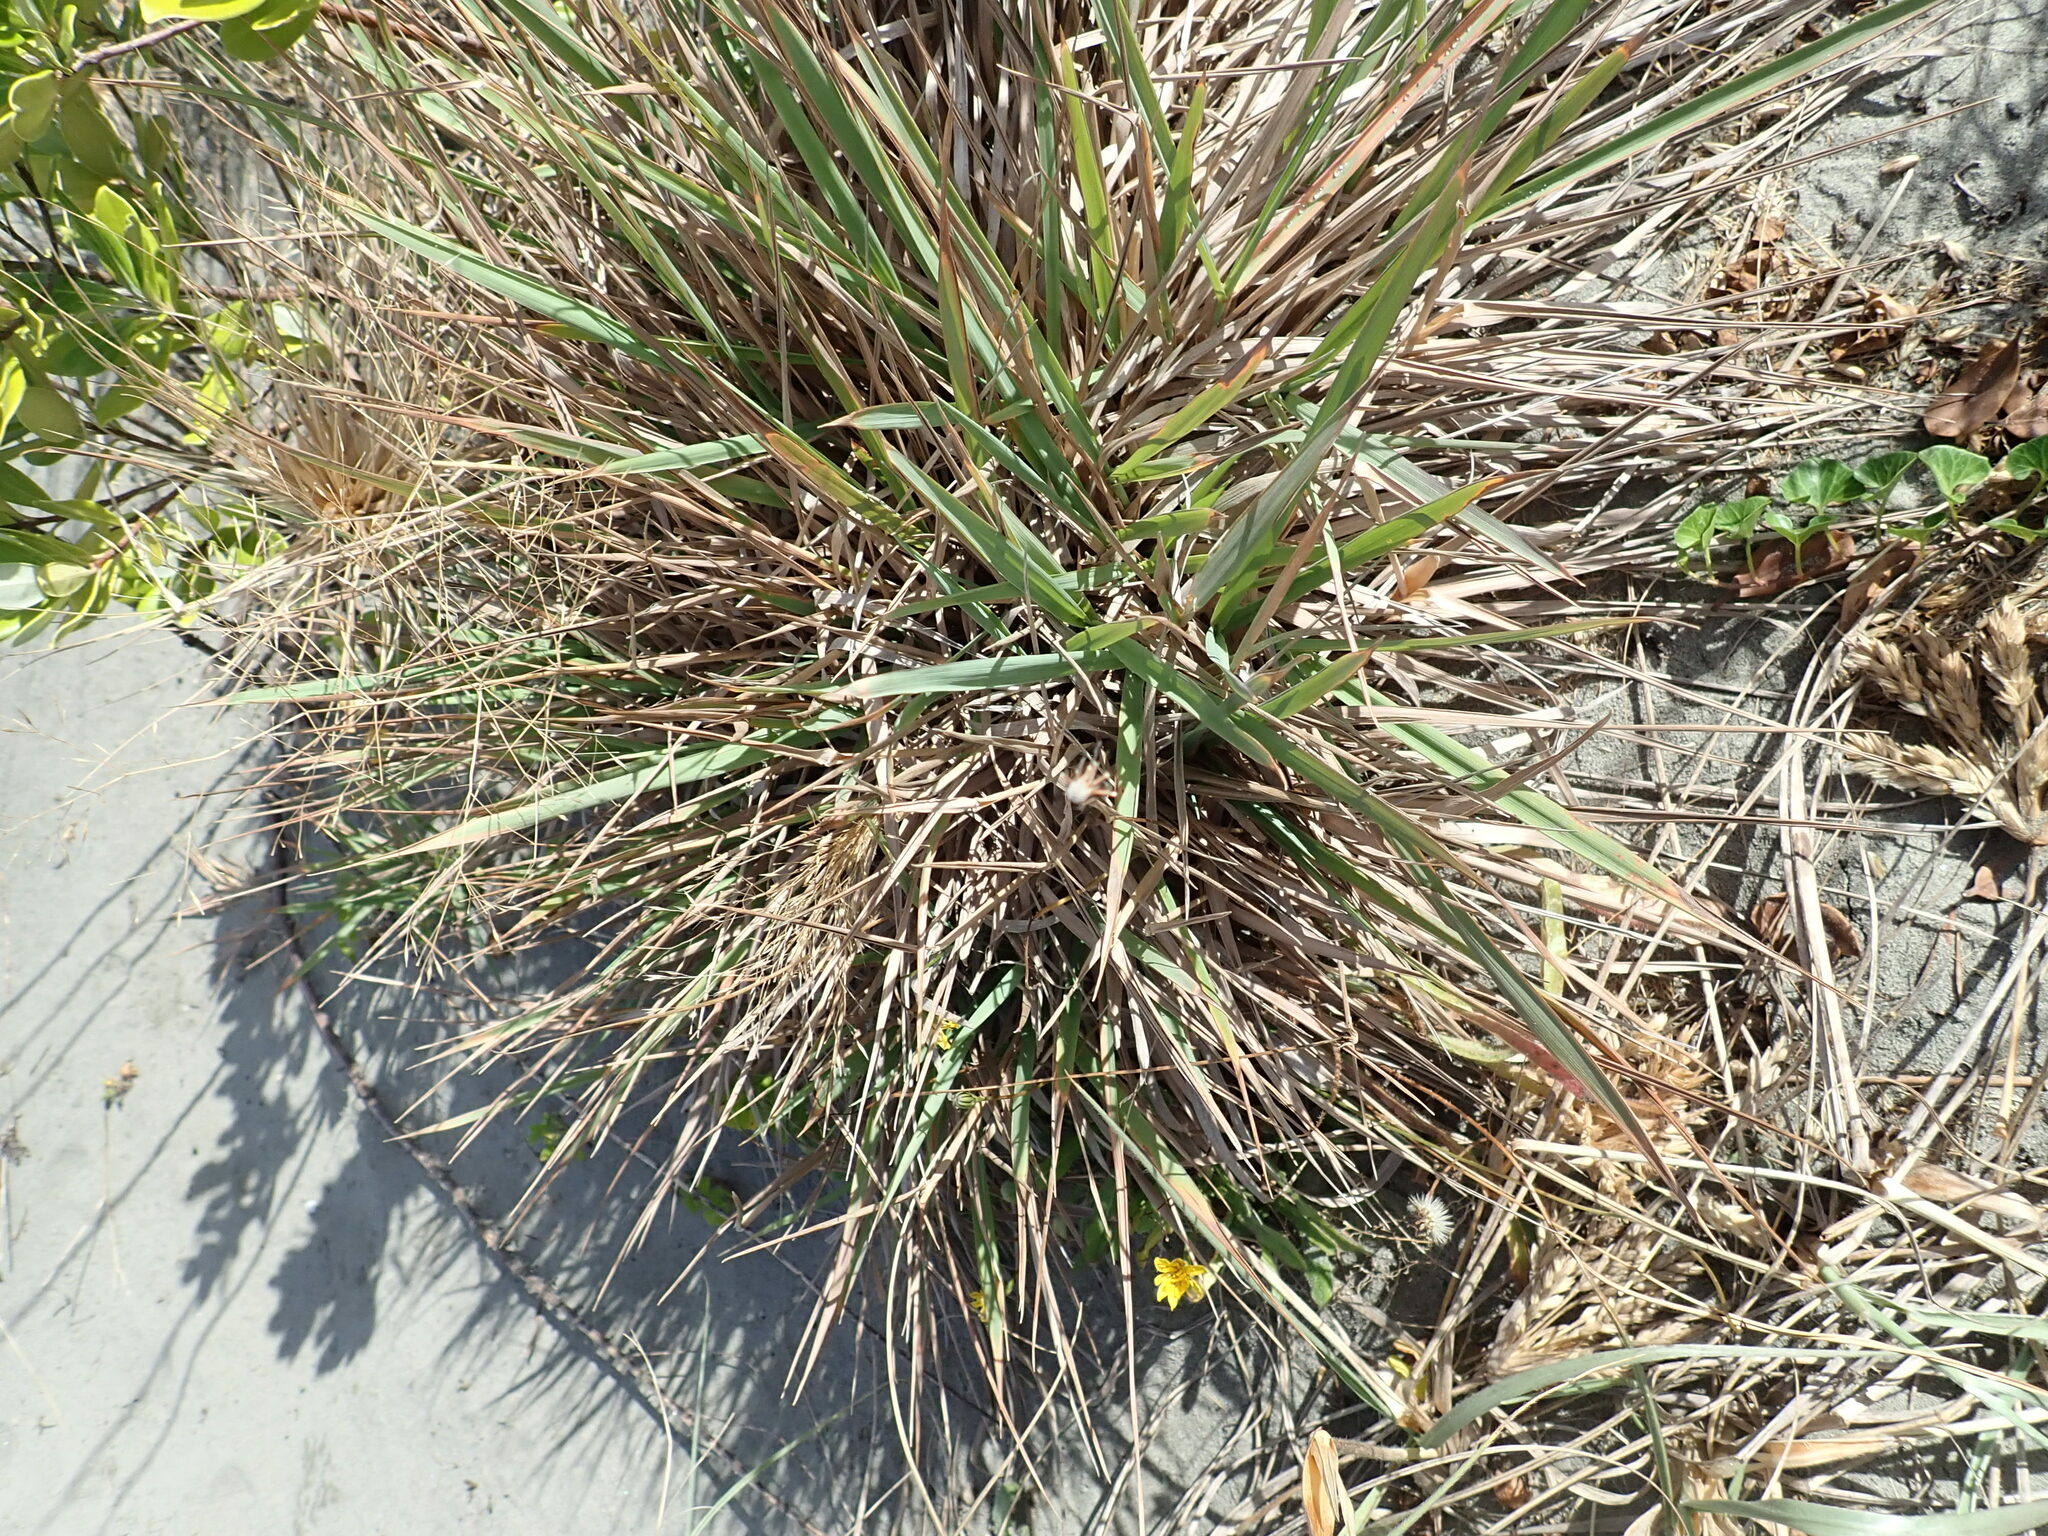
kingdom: Plantae
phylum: Tracheophyta
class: Liliopsida
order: Poales
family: Poaceae
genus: Lachnagrostis
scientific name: Lachnagrostis billardierei
